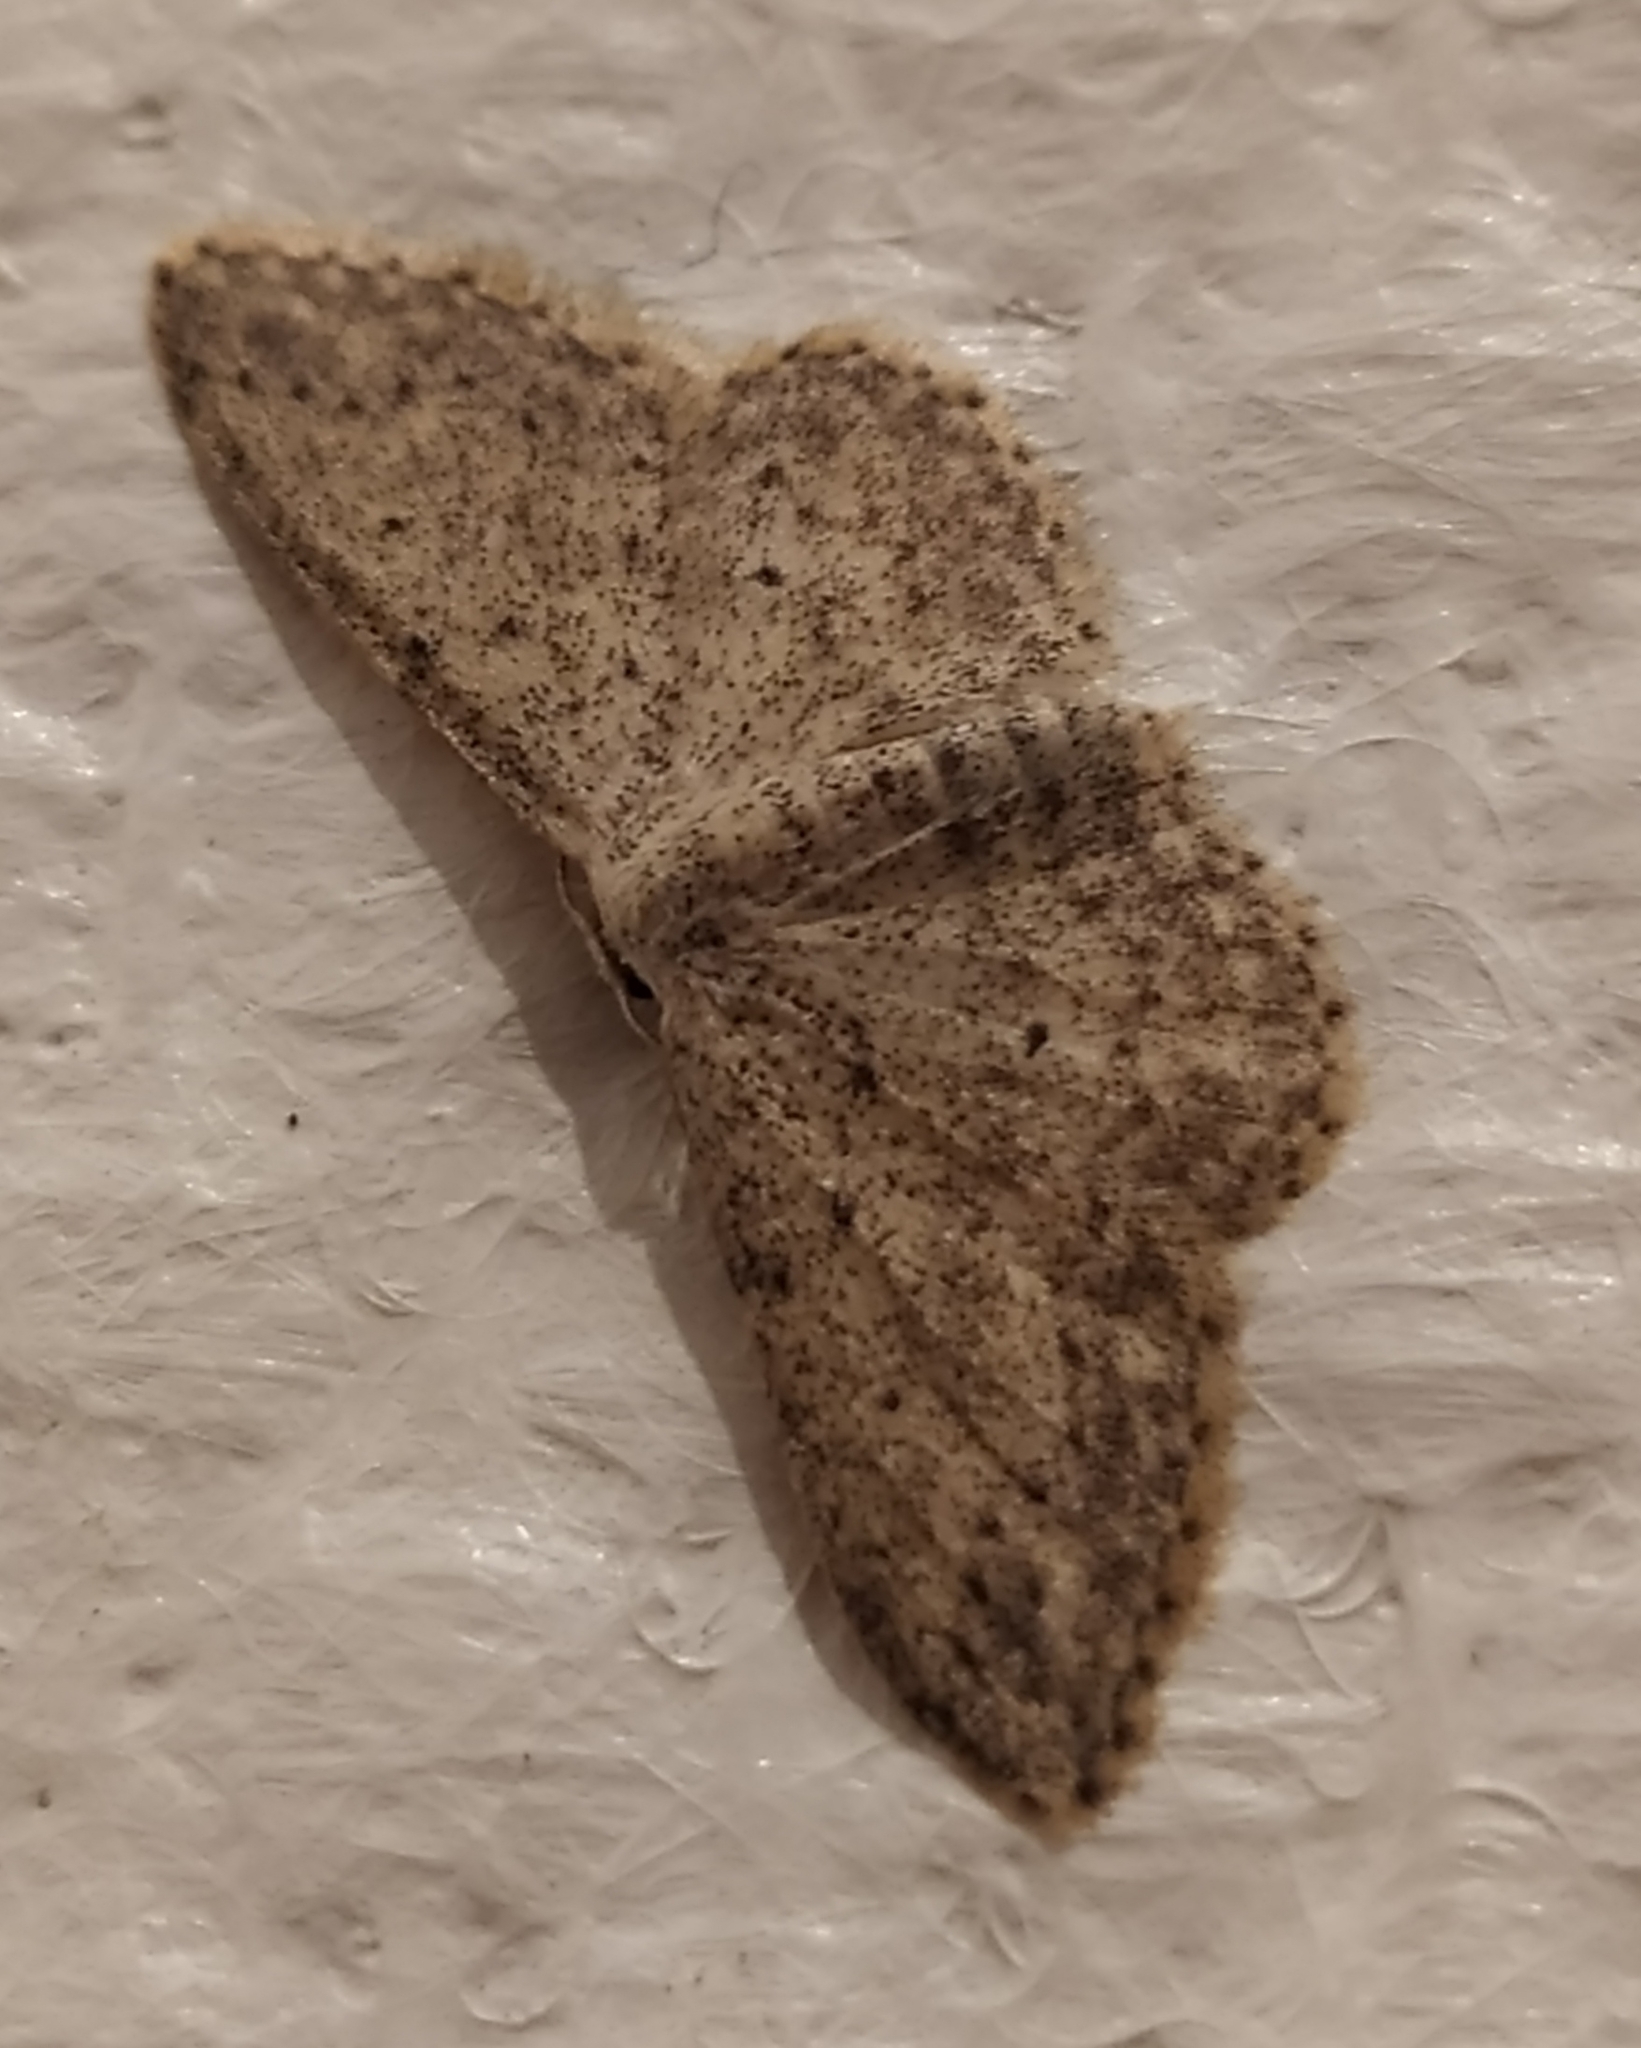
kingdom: Animalia
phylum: Arthropoda
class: Insecta
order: Lepidoptera
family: Geometridae
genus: Idaea
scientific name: Idaea seriata
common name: Small dusty wave
